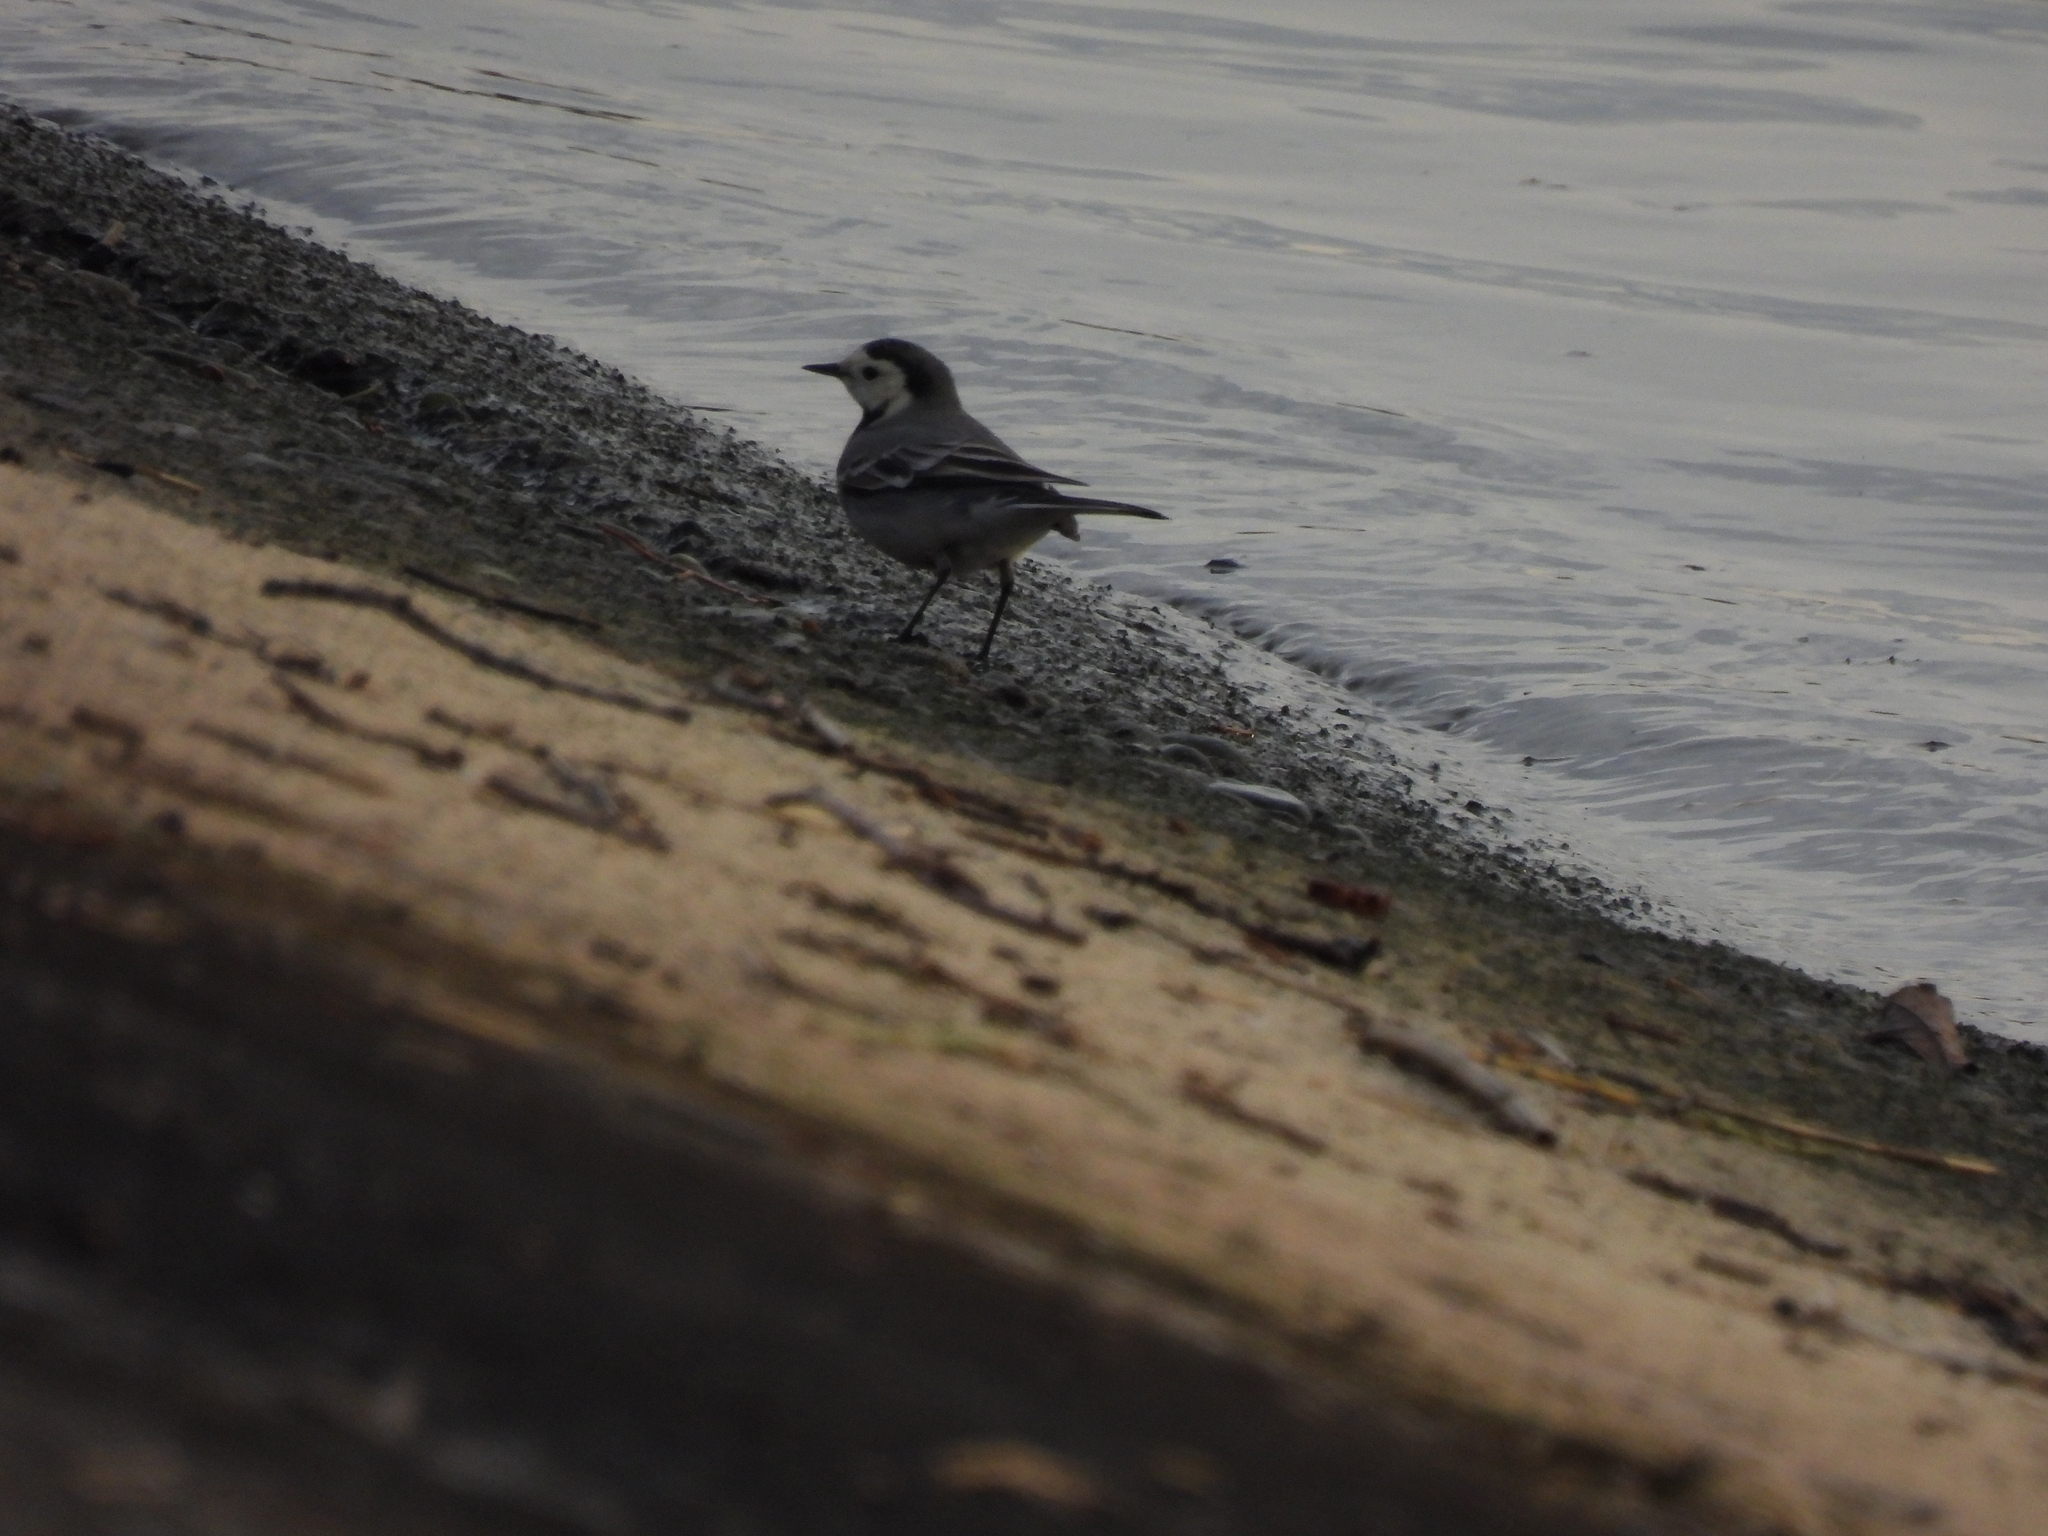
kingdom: Animalia
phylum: Chordata
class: Aves
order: Passeriformes
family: Motacillidae
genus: Motacilla
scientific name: Motacilla alba
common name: White wagtail
